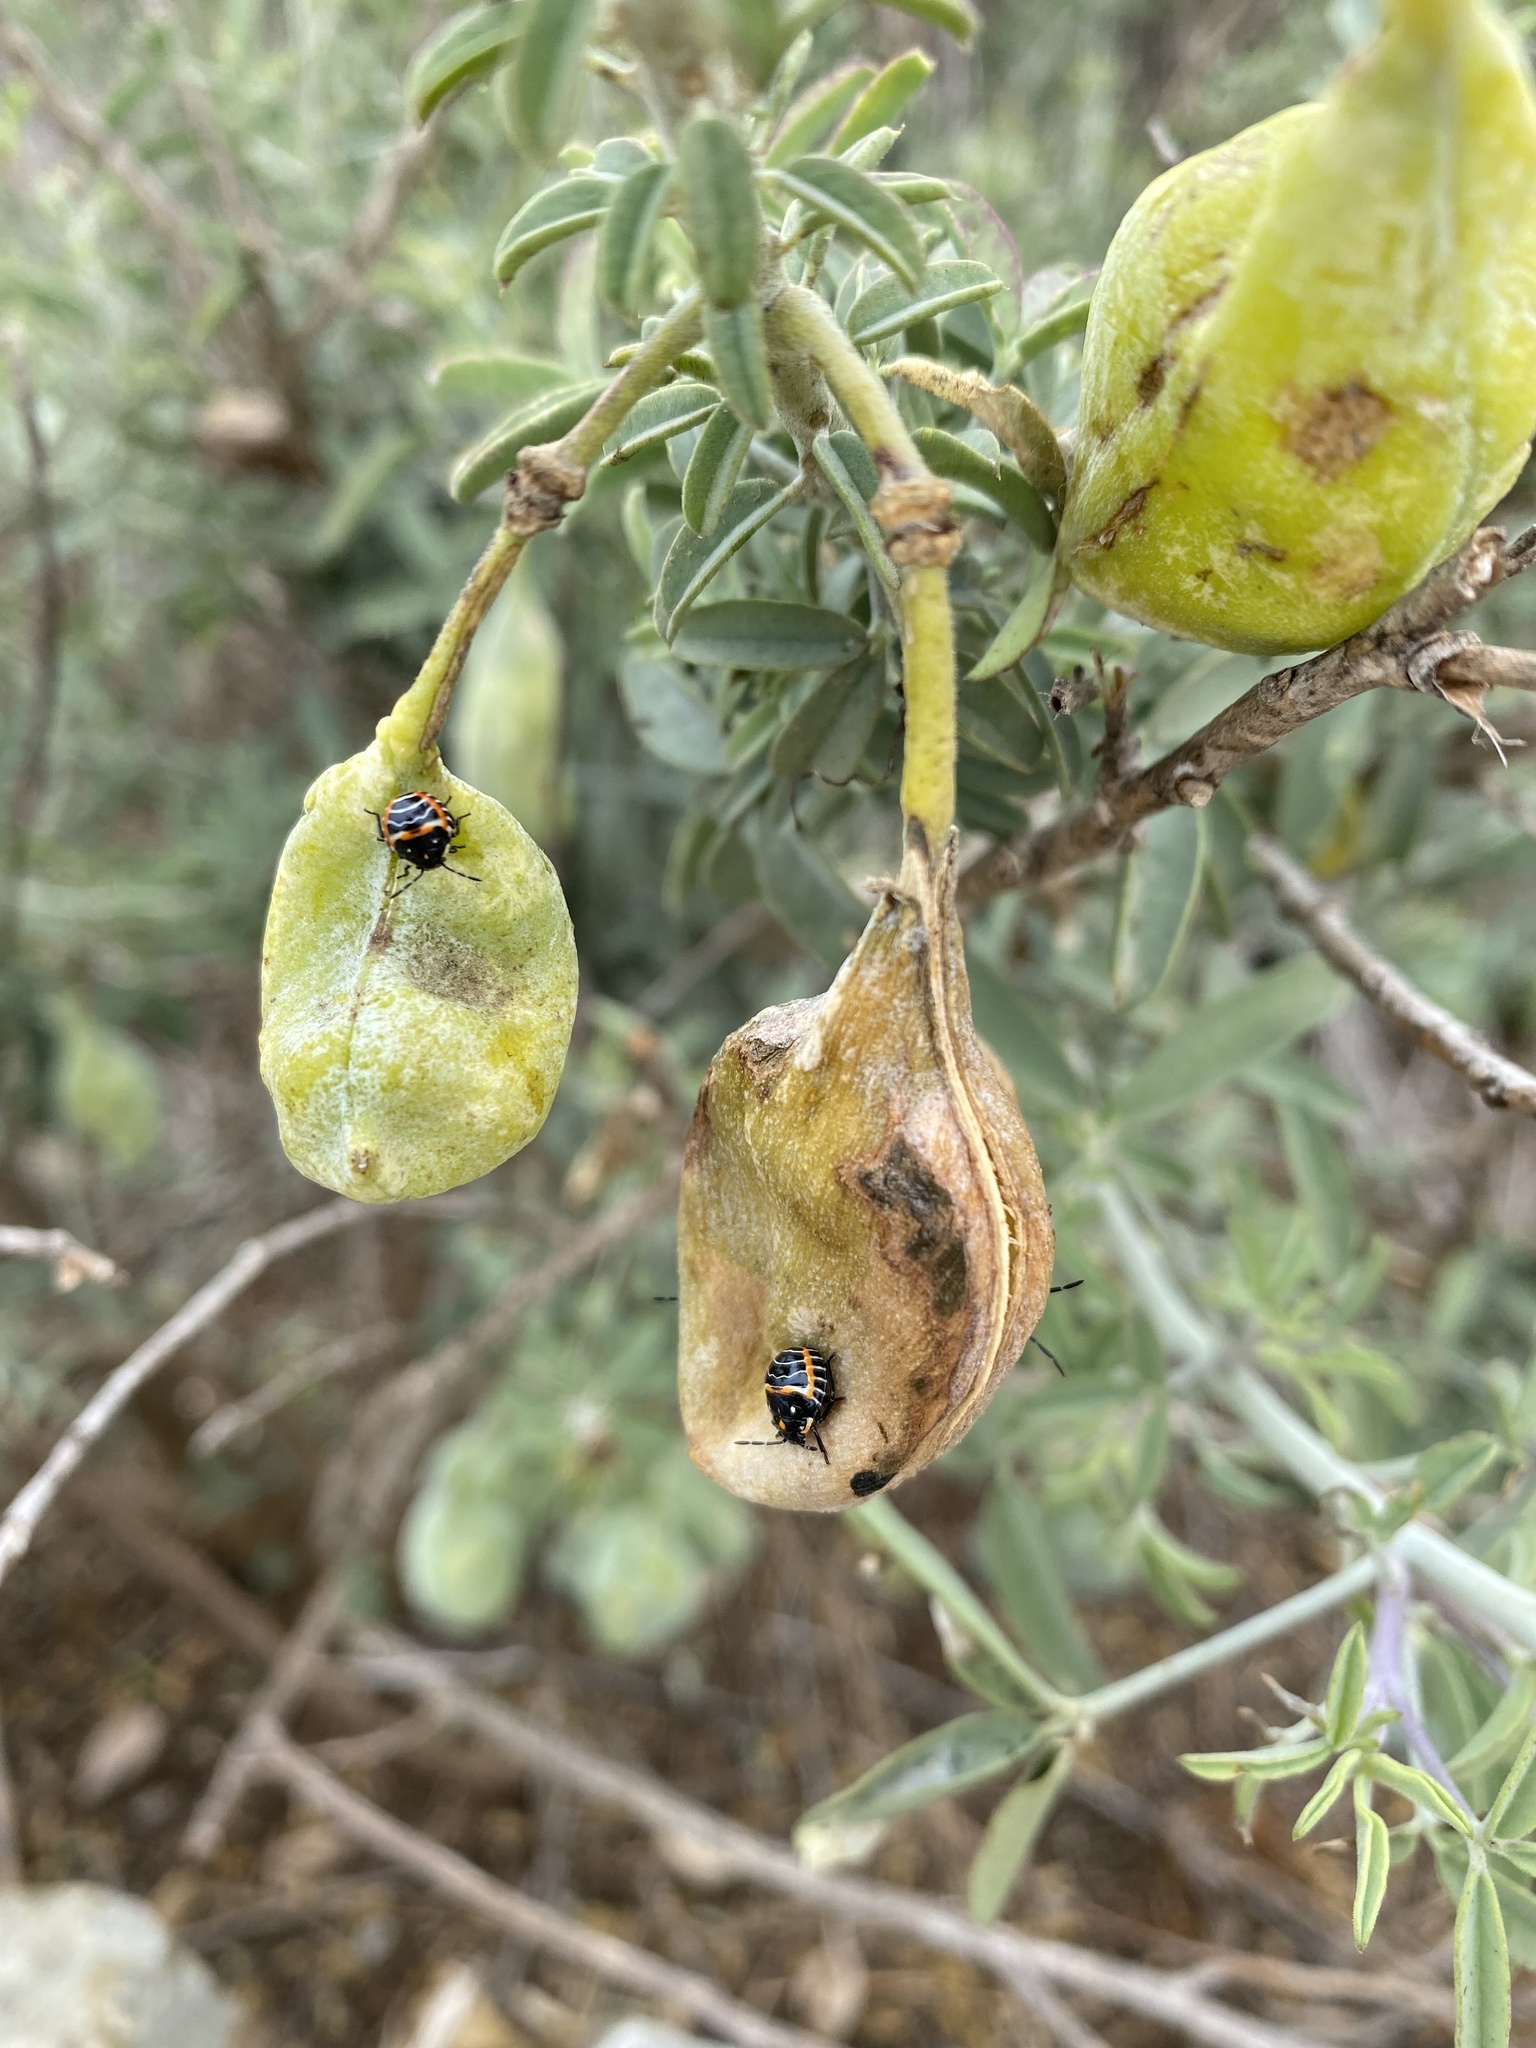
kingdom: Animalia
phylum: Arthropoda
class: Insecta
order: Hemiptera
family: Pentatomidae
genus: Murgantia
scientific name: Murgantia histrionica
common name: Harlequin bug
